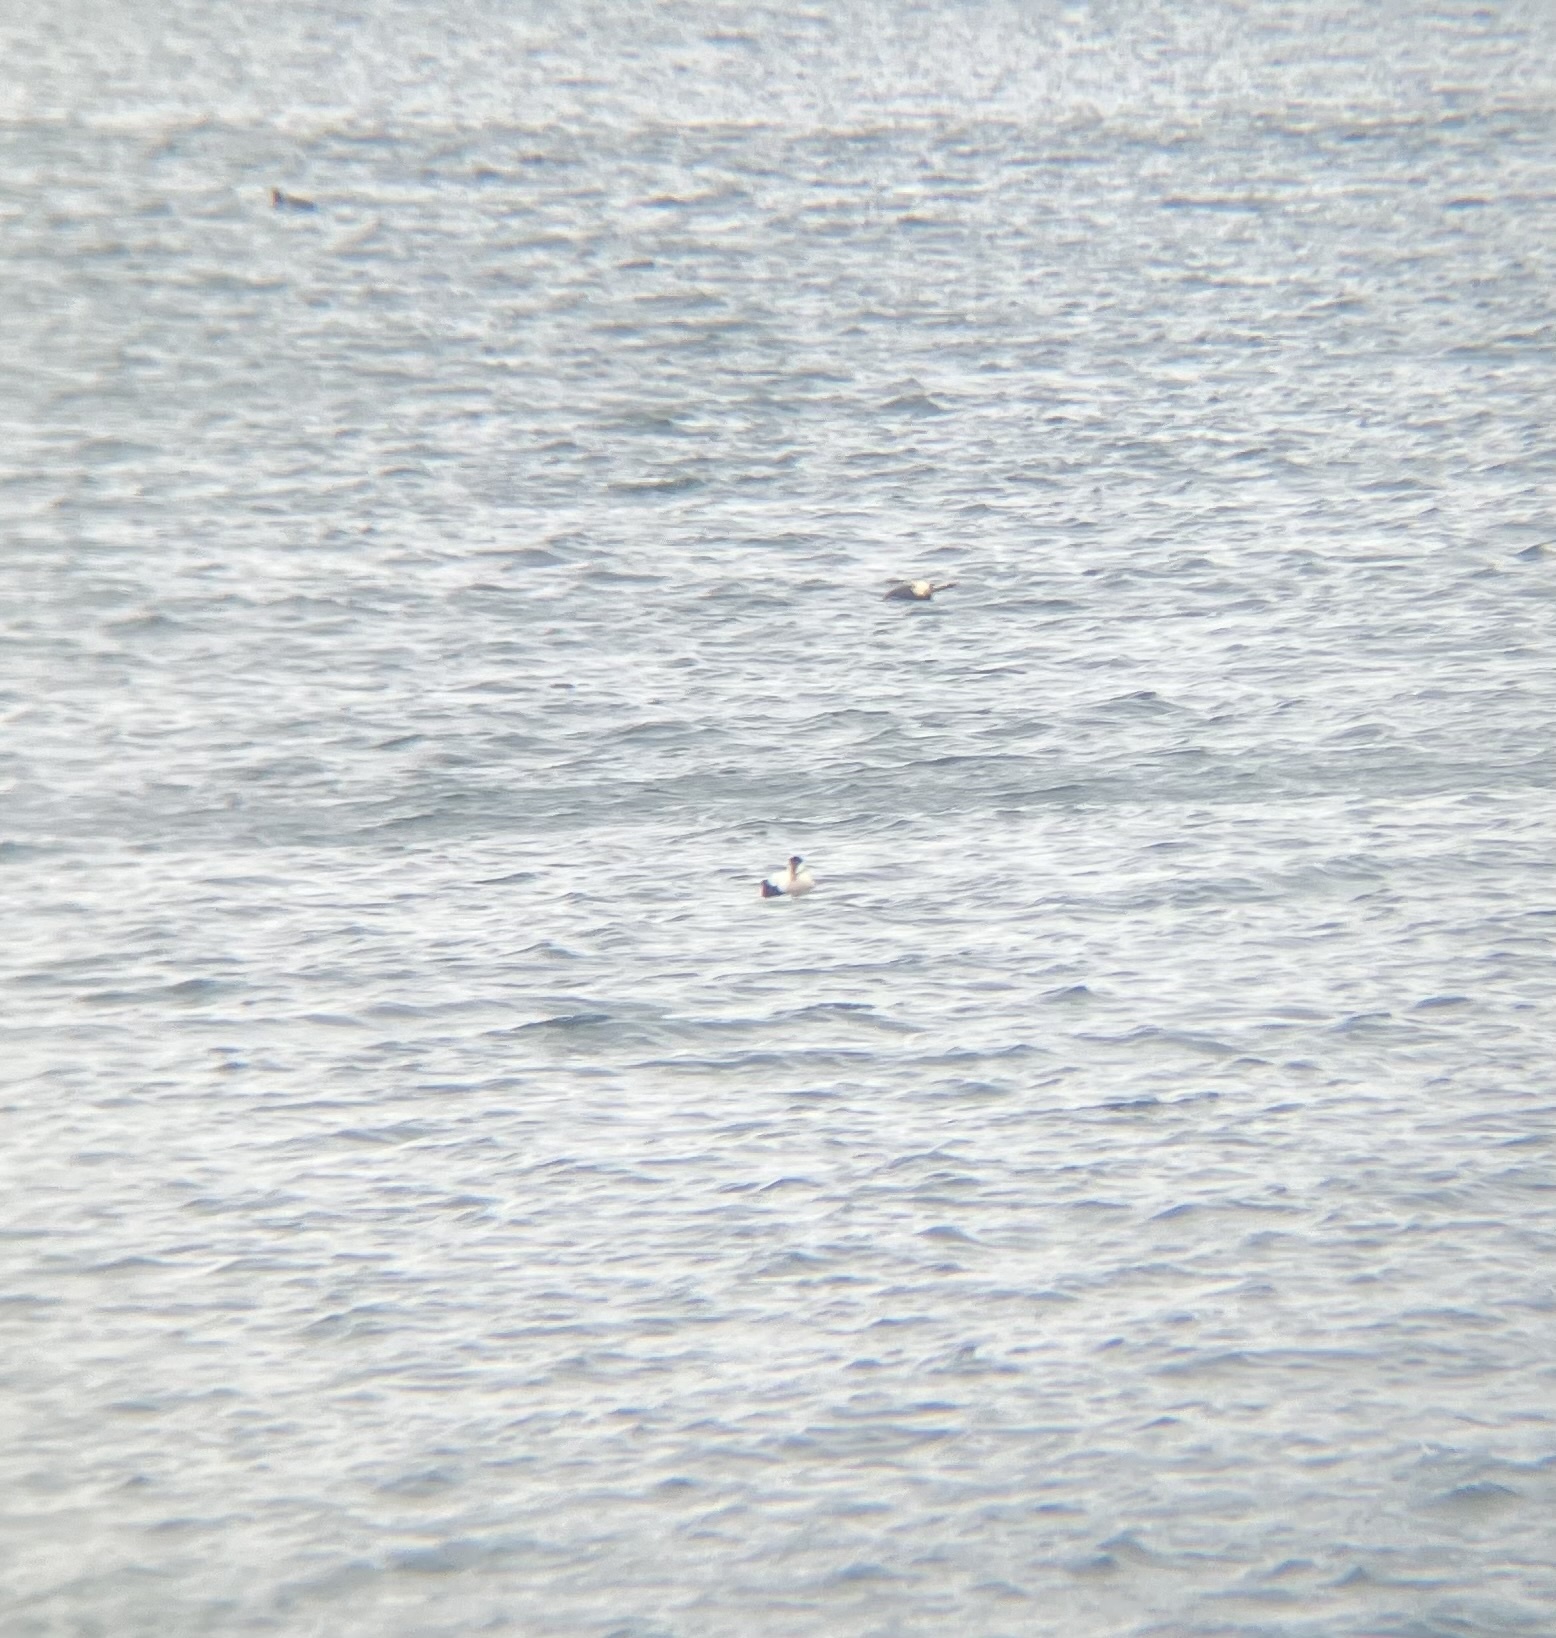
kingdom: Animalia
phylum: Chordata
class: Aves
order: Anseriformes
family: Anatidae
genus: Somateria
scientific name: Somateria mollissima
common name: Common eider
